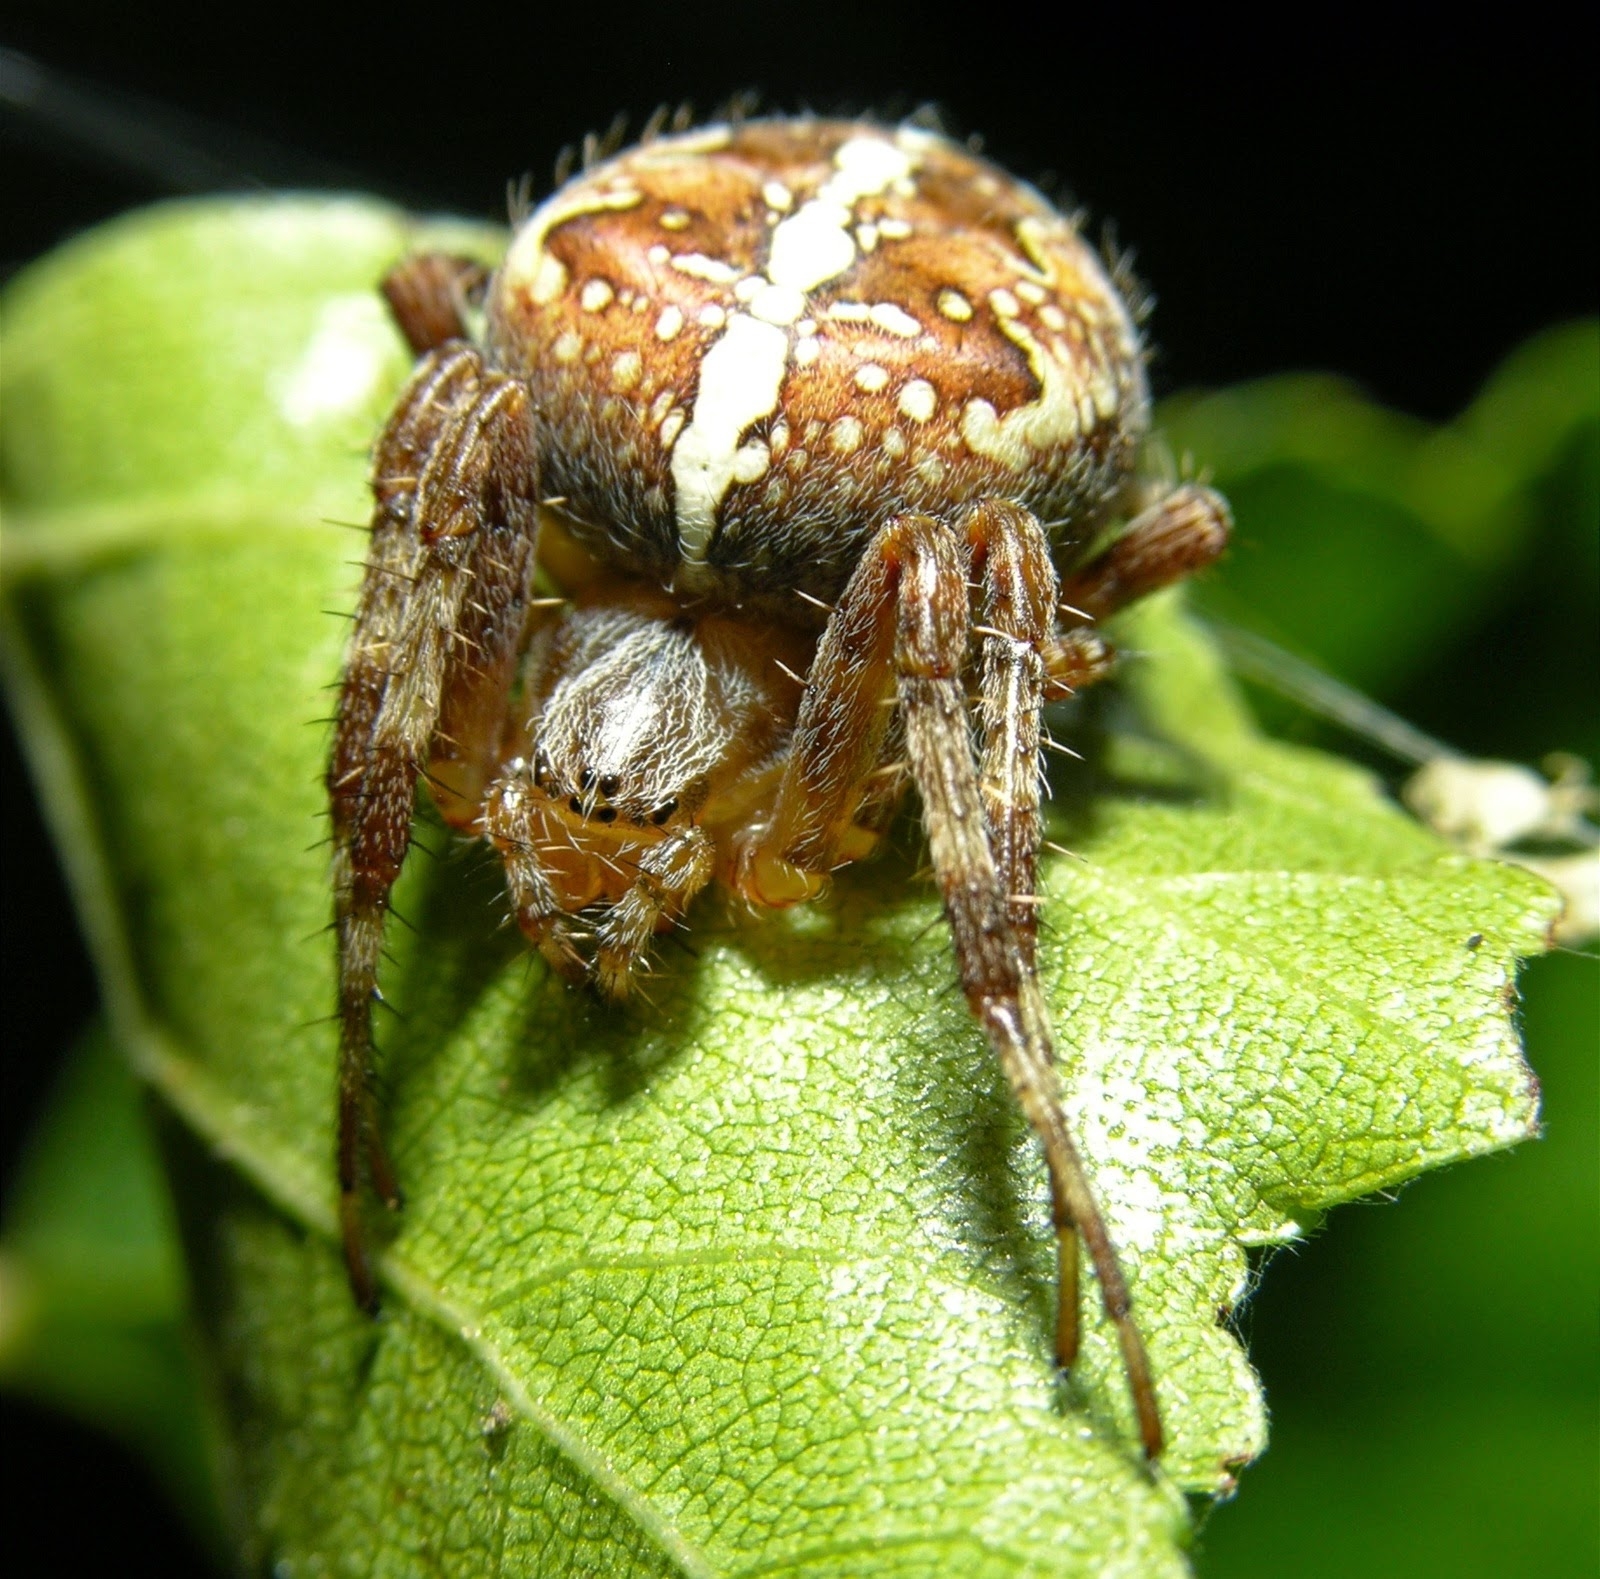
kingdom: Animalia
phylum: Arthropoda
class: Arachnida
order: Araneae
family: Araneidae
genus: Araneus
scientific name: Araneus diadematus
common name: Cross orbweaver
